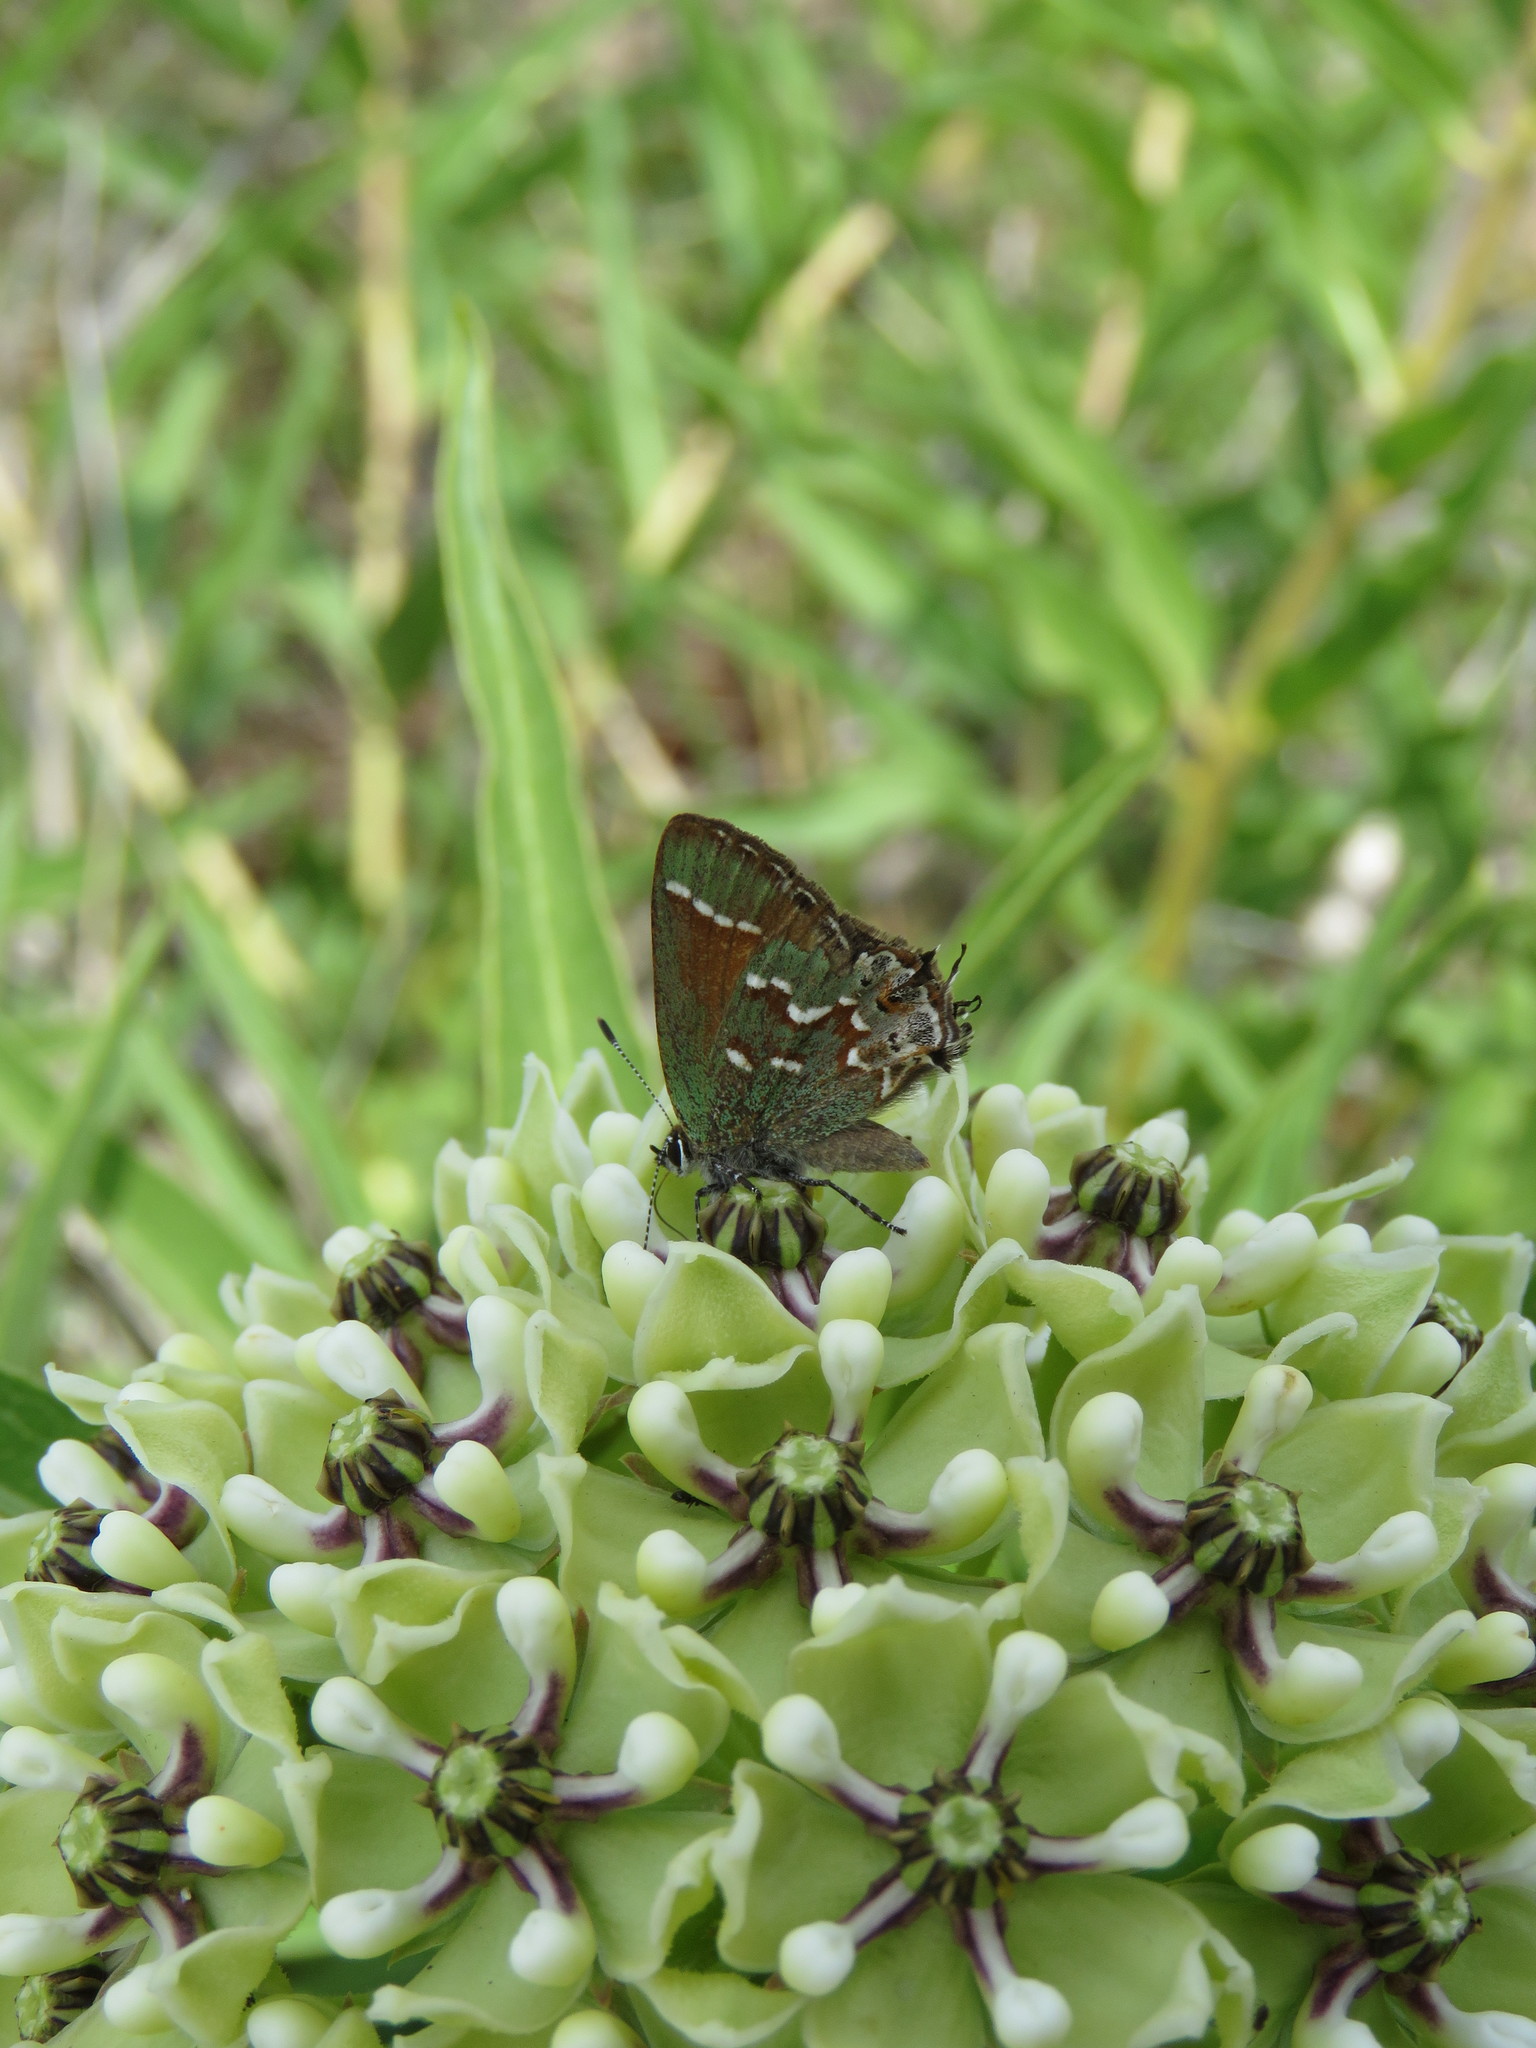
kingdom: Animalia
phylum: Arthropoda
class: Insecta
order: Lepidoptera
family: Lycaenidae
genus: Mitoura
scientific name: Mitoura gryneus
